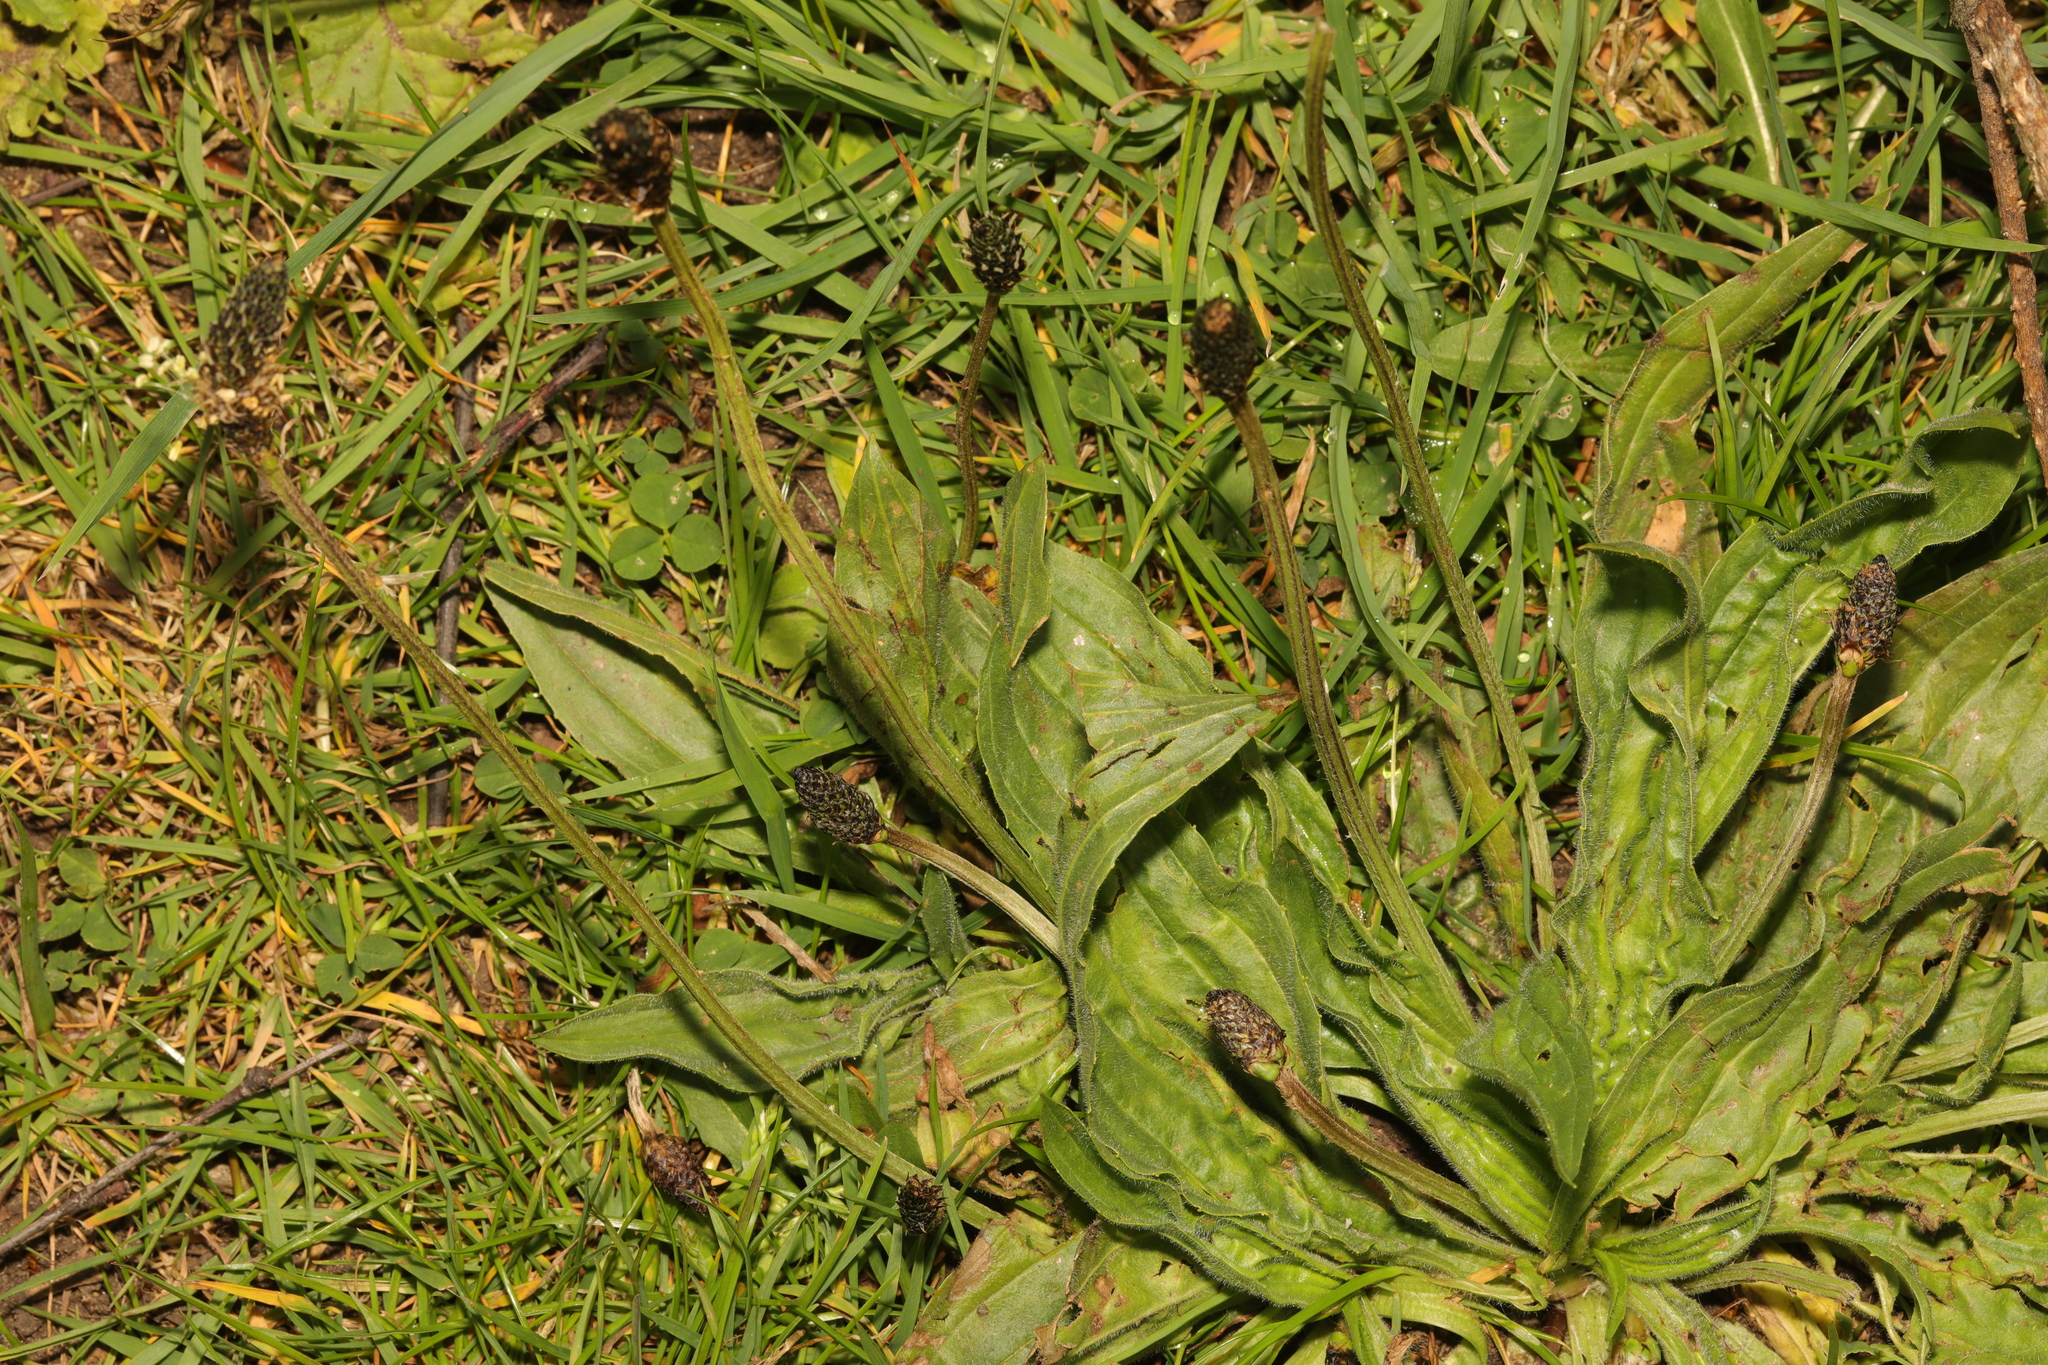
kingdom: Plantae
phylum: Tracheophyta
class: Magnoliopsida
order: Lamiales
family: Plantaginaceae
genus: Plantago
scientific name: Plantago lanceolata
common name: Ribwort plantain
